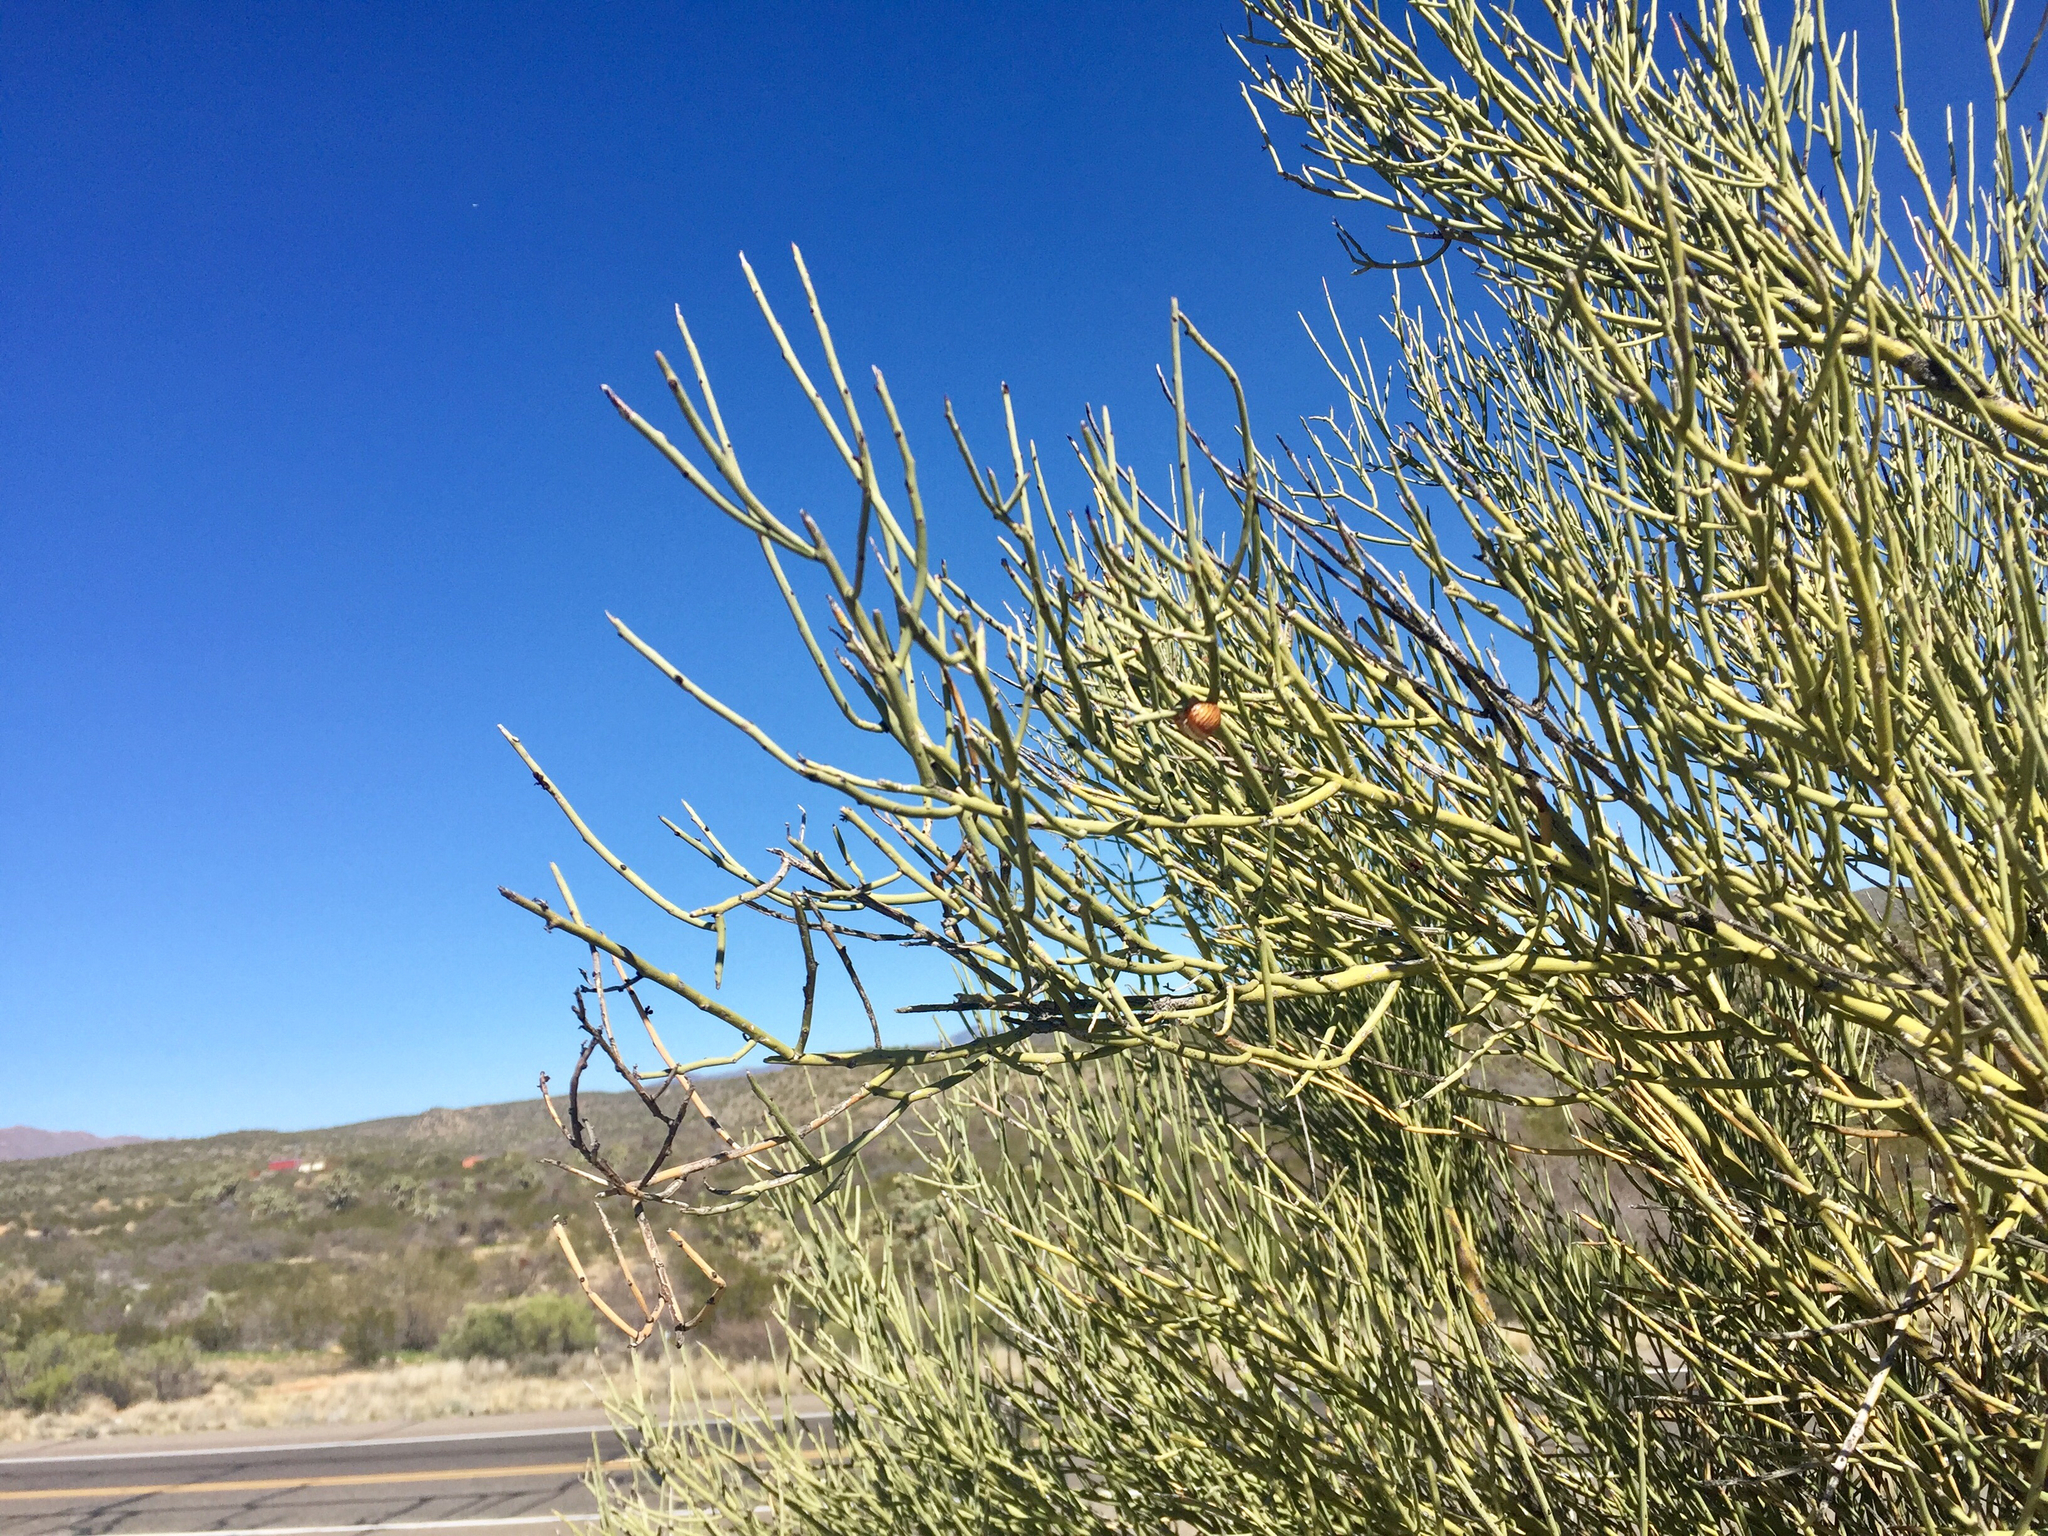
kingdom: Plantae
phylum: Tracheophyta
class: Magnoliopsida
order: Celastrales
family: Celastraceae
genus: Canotia
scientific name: Canotia holacantha
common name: Crucifixion thorns
